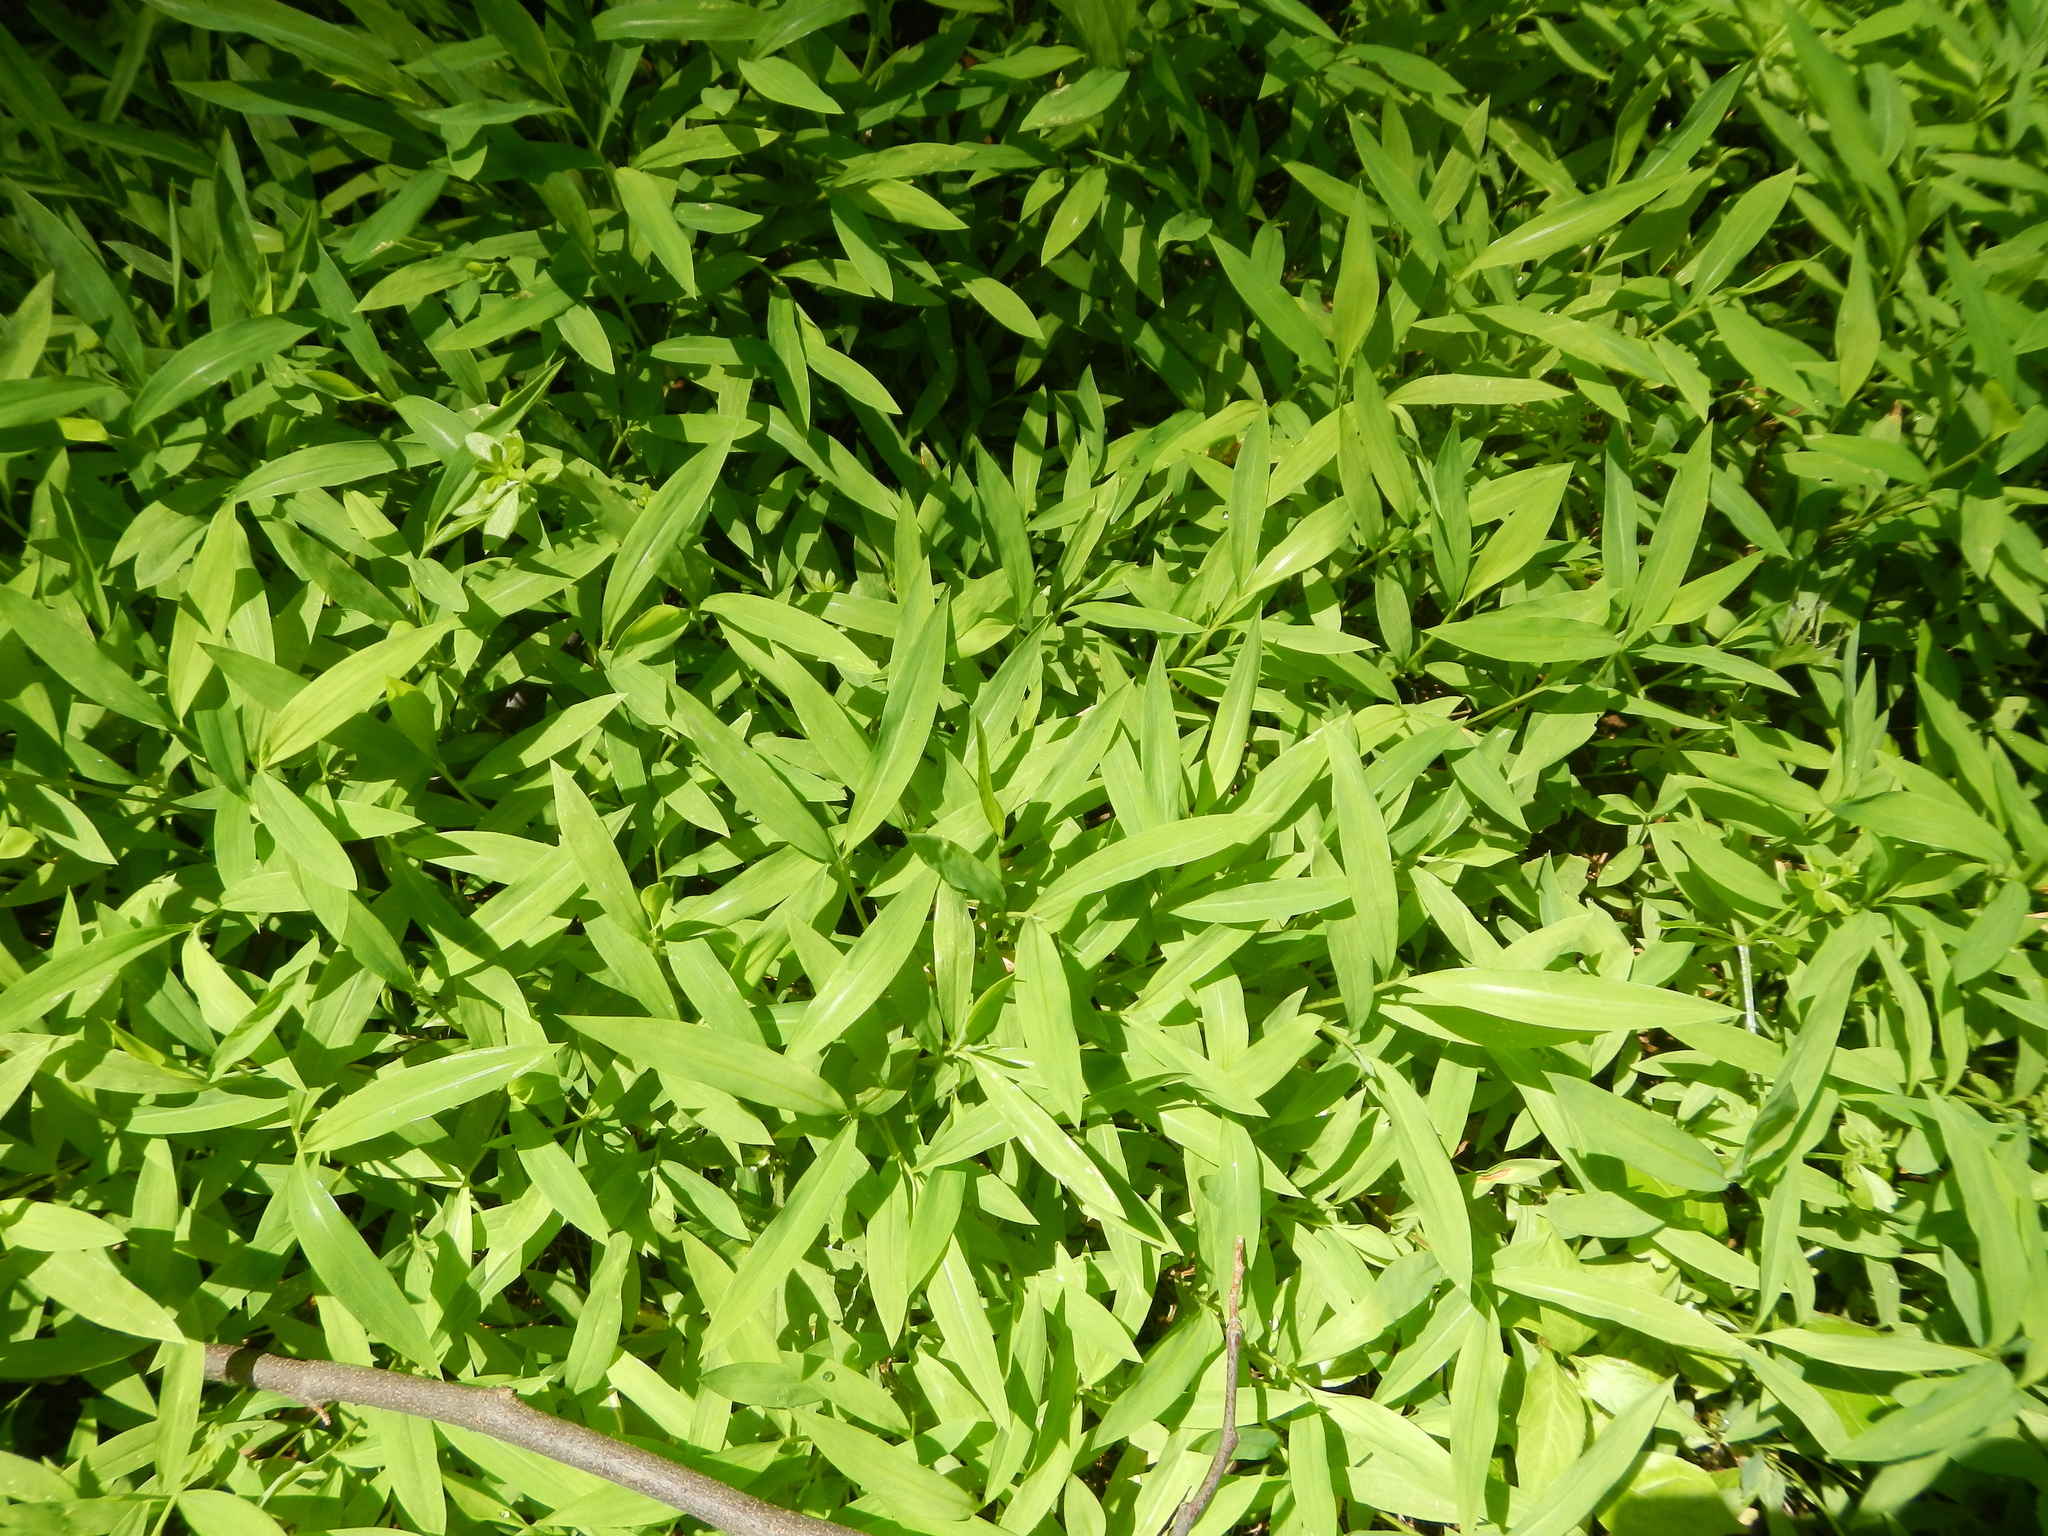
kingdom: Plantae
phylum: Tracheophyta
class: Liliopsida
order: Poales
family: Poaceae
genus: Microstegium
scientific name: Microstegium vimineum
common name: Japanese stiltgrass
